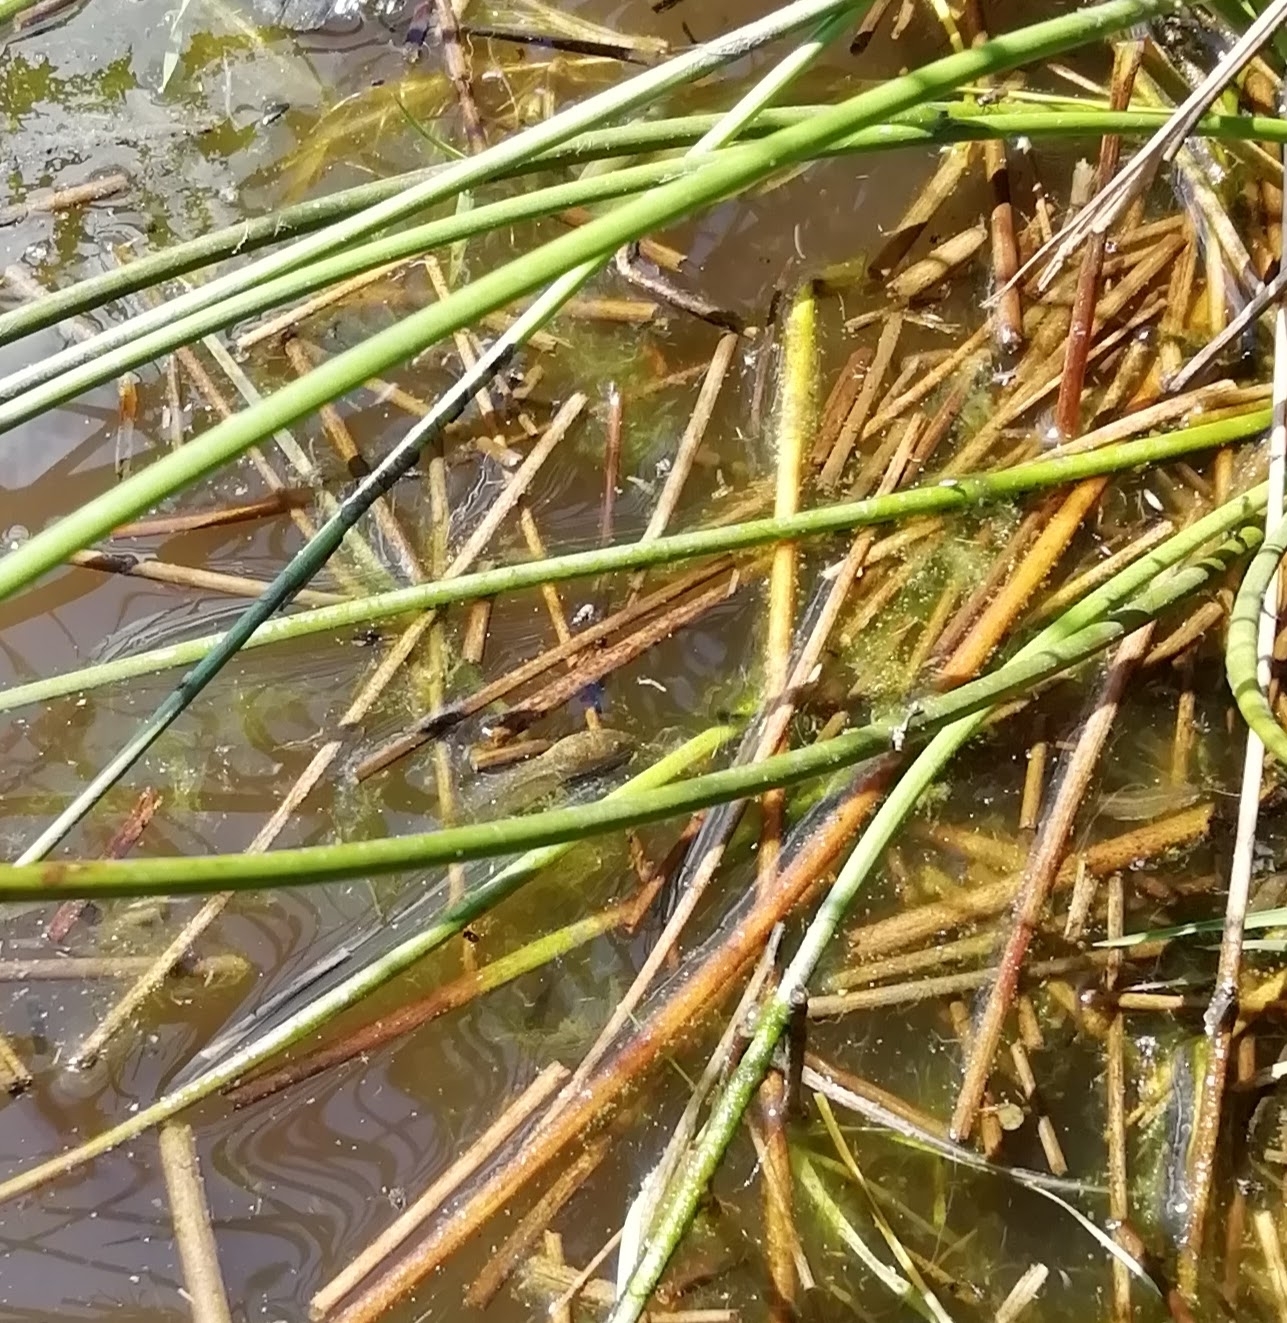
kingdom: Animalia
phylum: Chordata
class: Amphibia
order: Anura
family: Ranidae
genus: Rana
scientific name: Rana temporaria
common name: Common frog
